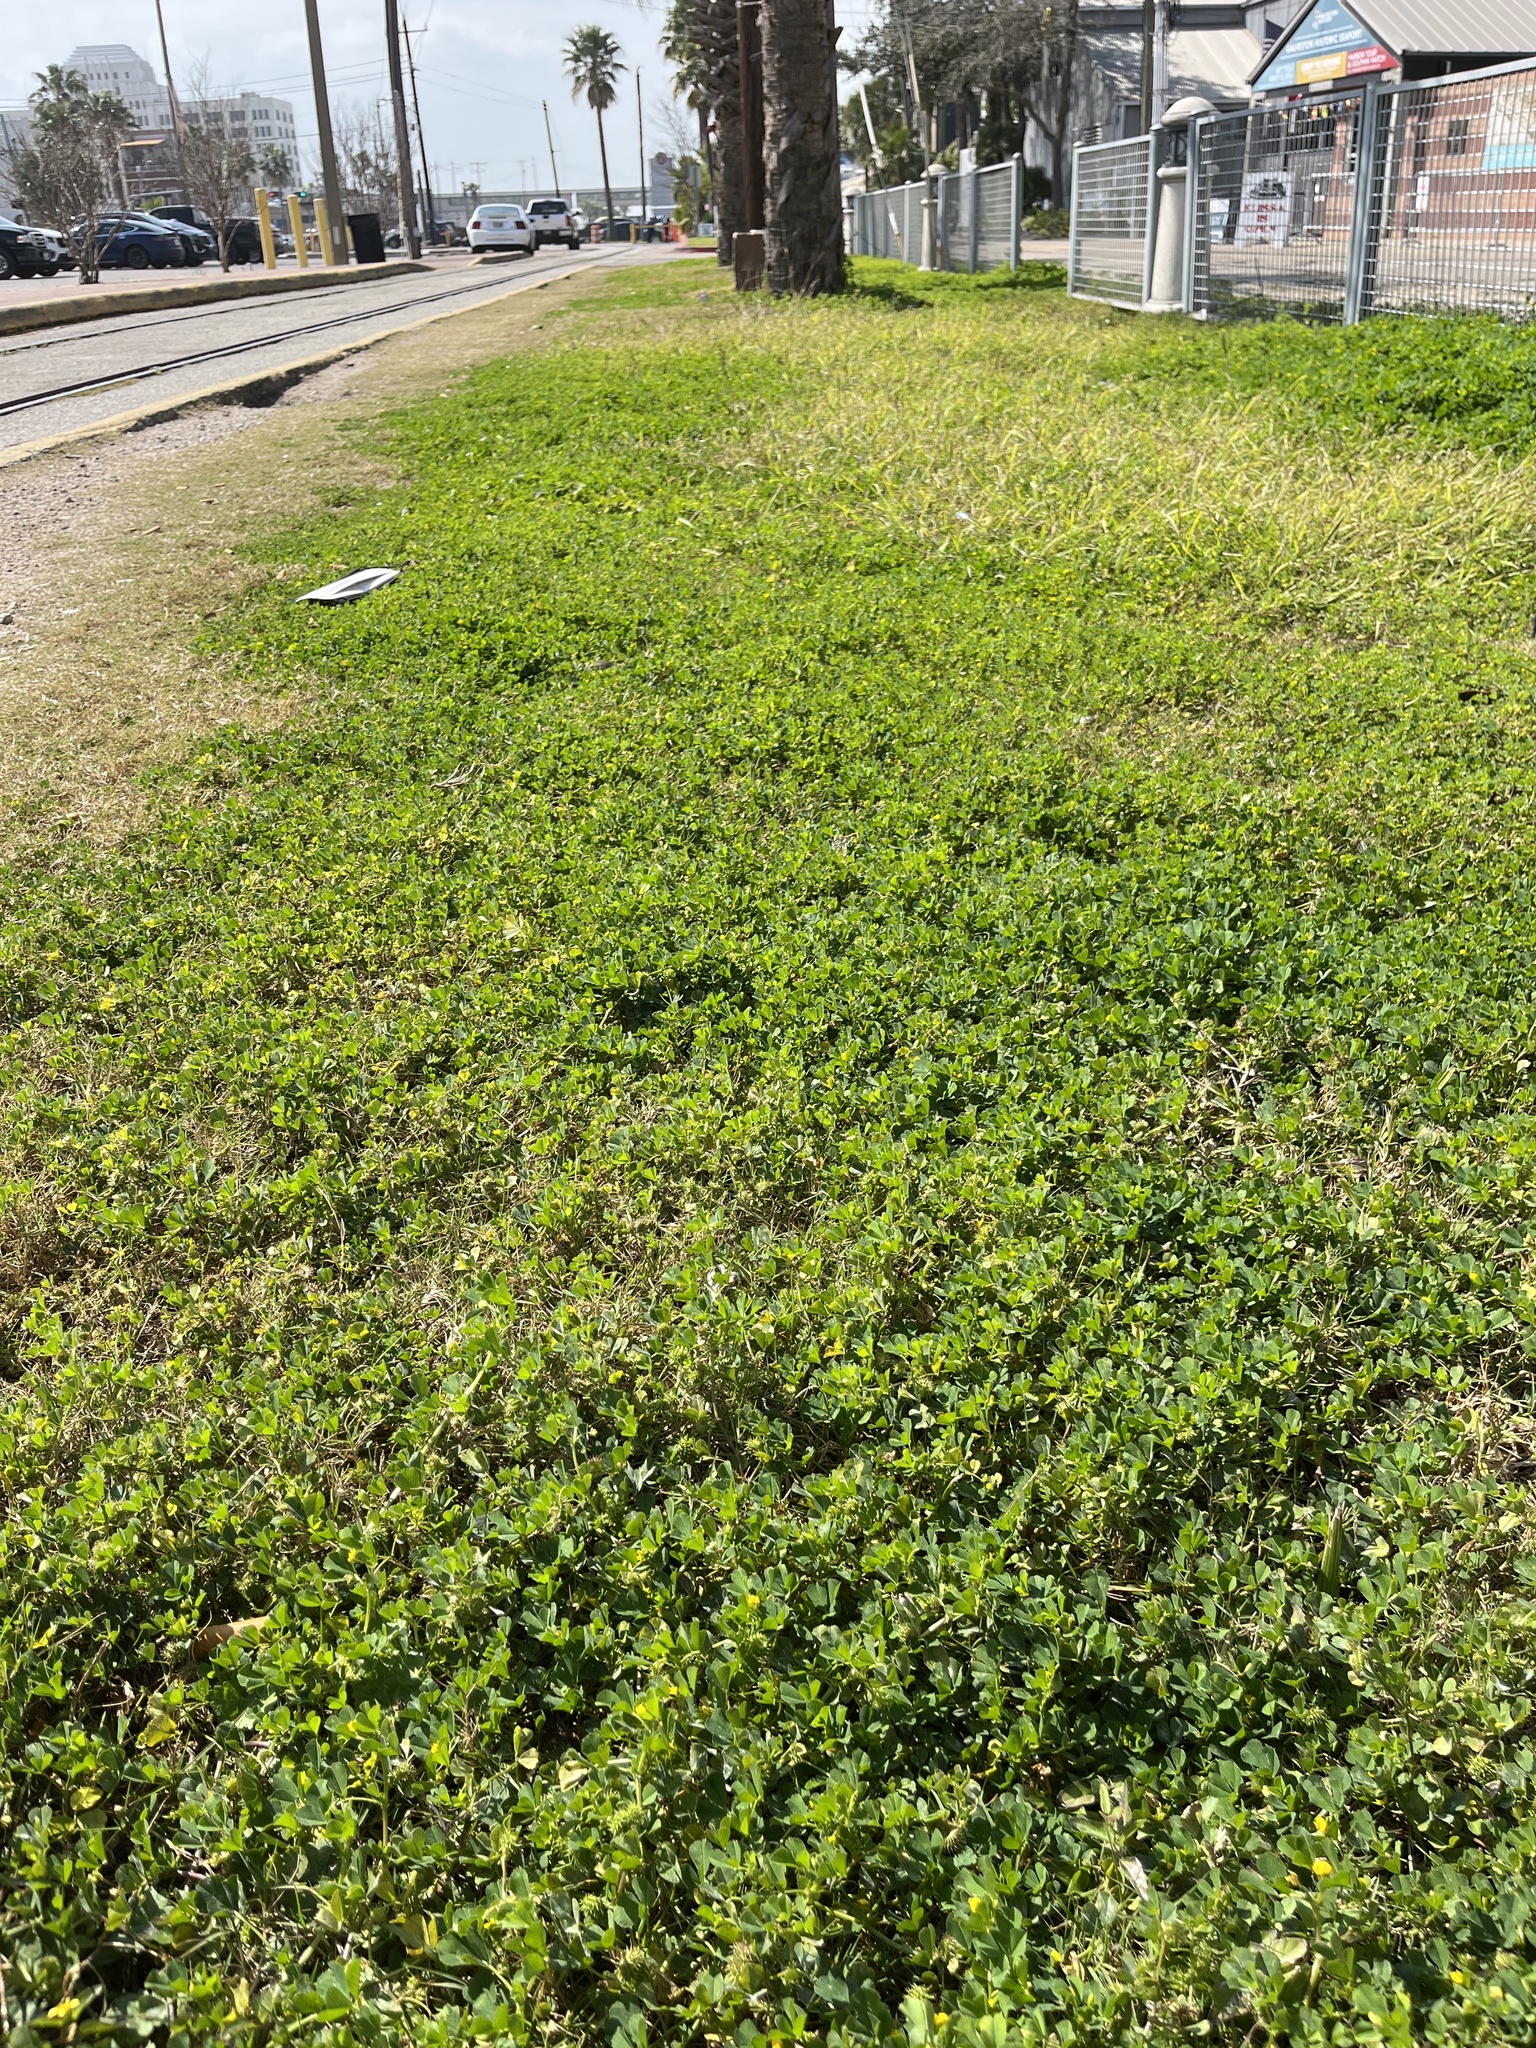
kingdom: Plantae
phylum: Tracheophyta
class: Magnoliopsida
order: Fabales
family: Fabaceae
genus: Medicago
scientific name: Medicago polymorpha
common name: Burclover
